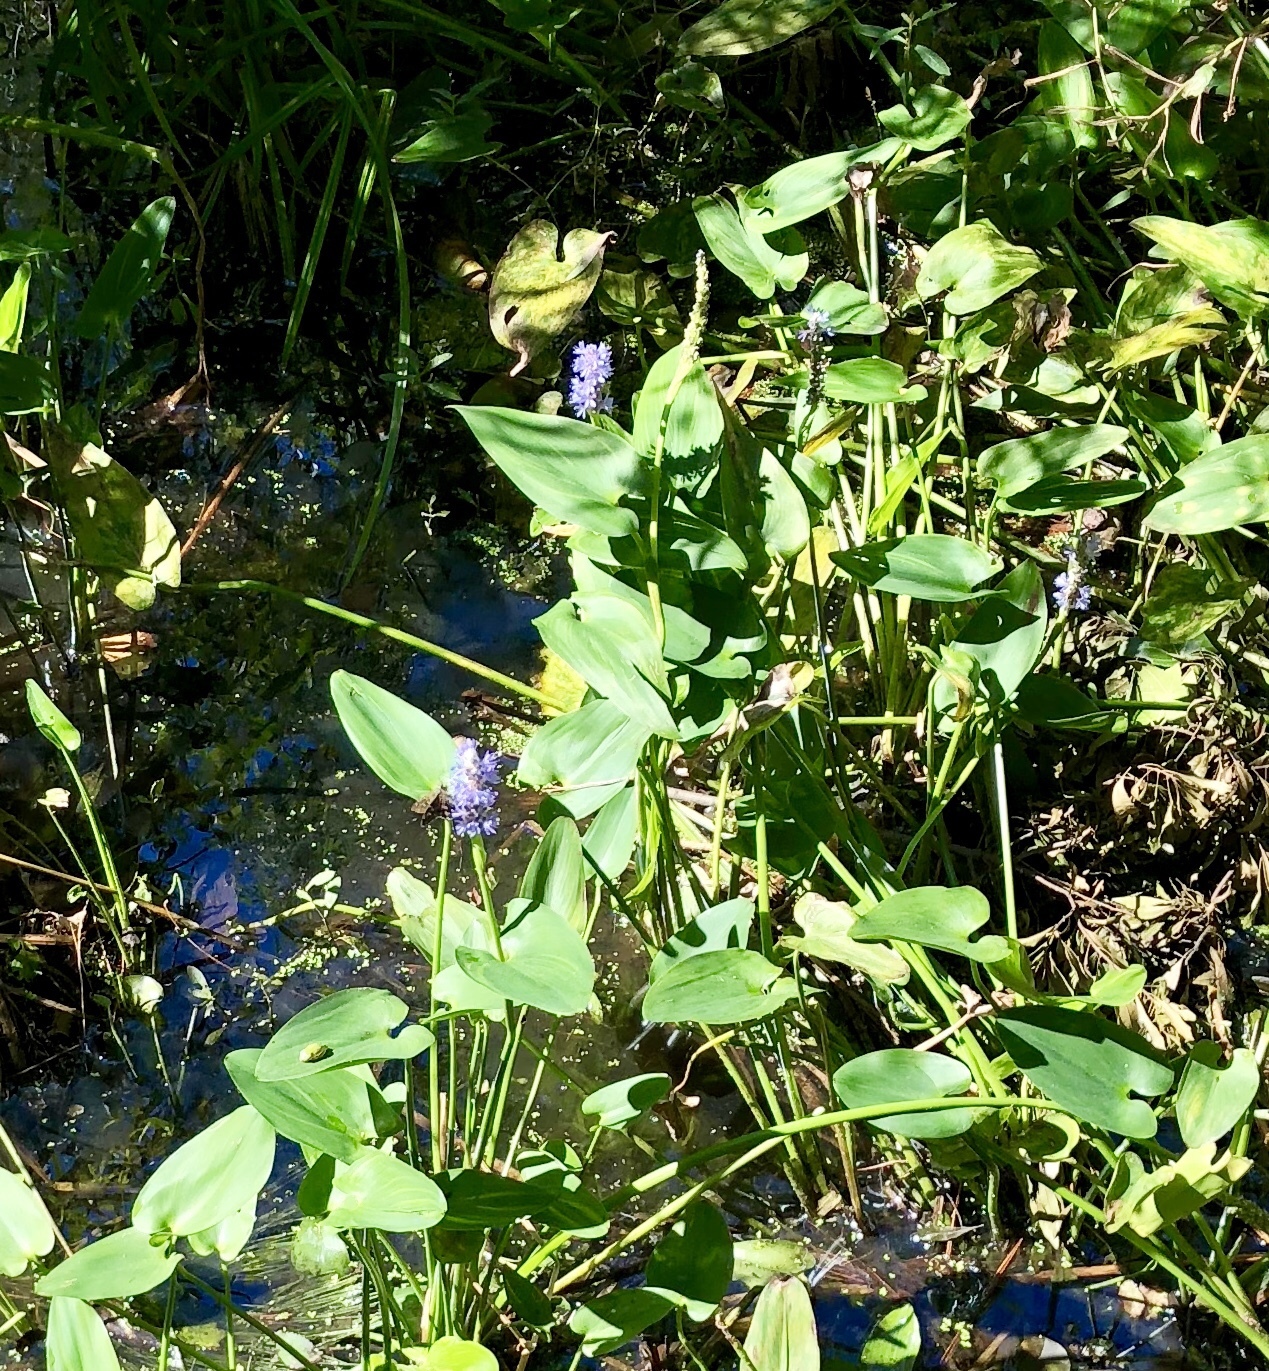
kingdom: Plantae
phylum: Tracheophyta
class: Liliopsida
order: Commelinales
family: Pontederiaceae
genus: Pontederia
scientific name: Pontederia cordata
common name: Pickerelweed
